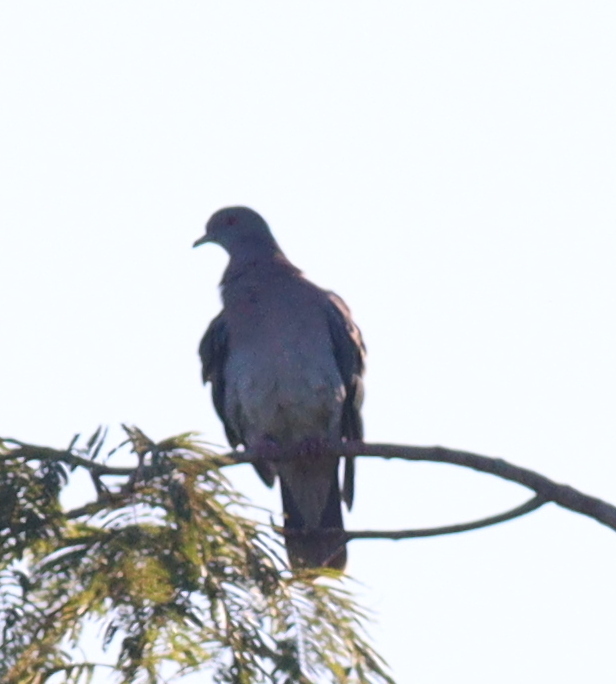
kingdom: Animalia
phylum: Chordata
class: Aves
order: Columbiformes
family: Columbidae
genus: Patagioenas
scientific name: Patagioenas cayennensis
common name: Pale-vented pigeon
